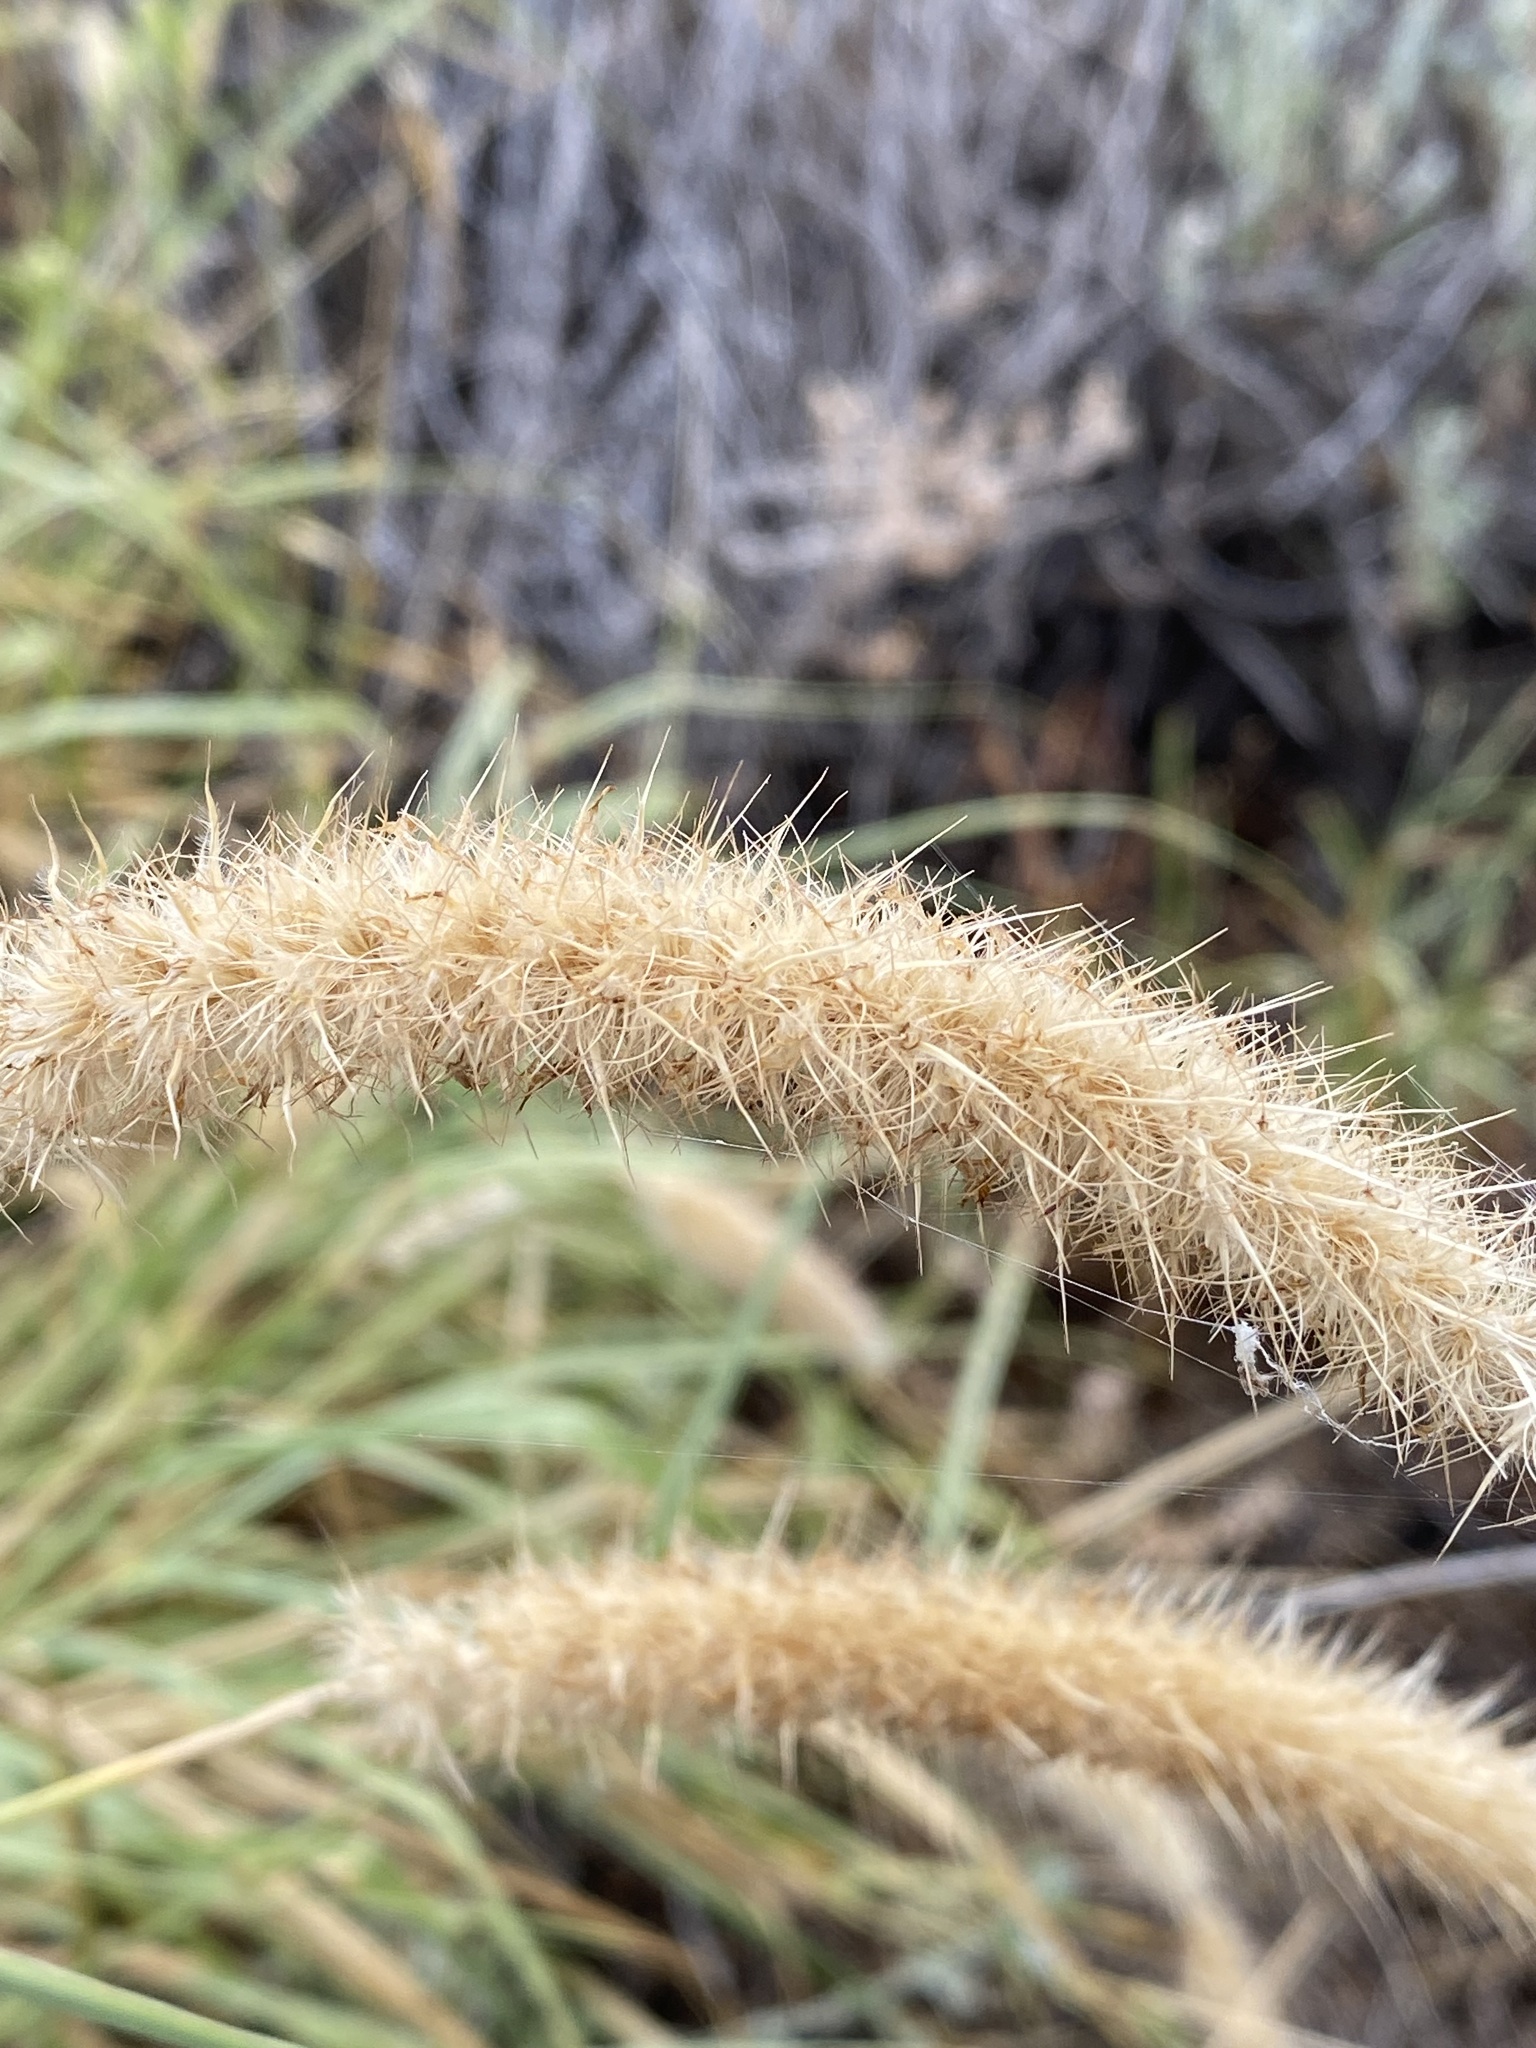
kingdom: Plantae
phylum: Tracheophyta
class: Liliopsida
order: Poales
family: Poaceae
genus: Cenchrus
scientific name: Cenchrus ciliaris
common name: Buffelgrass
